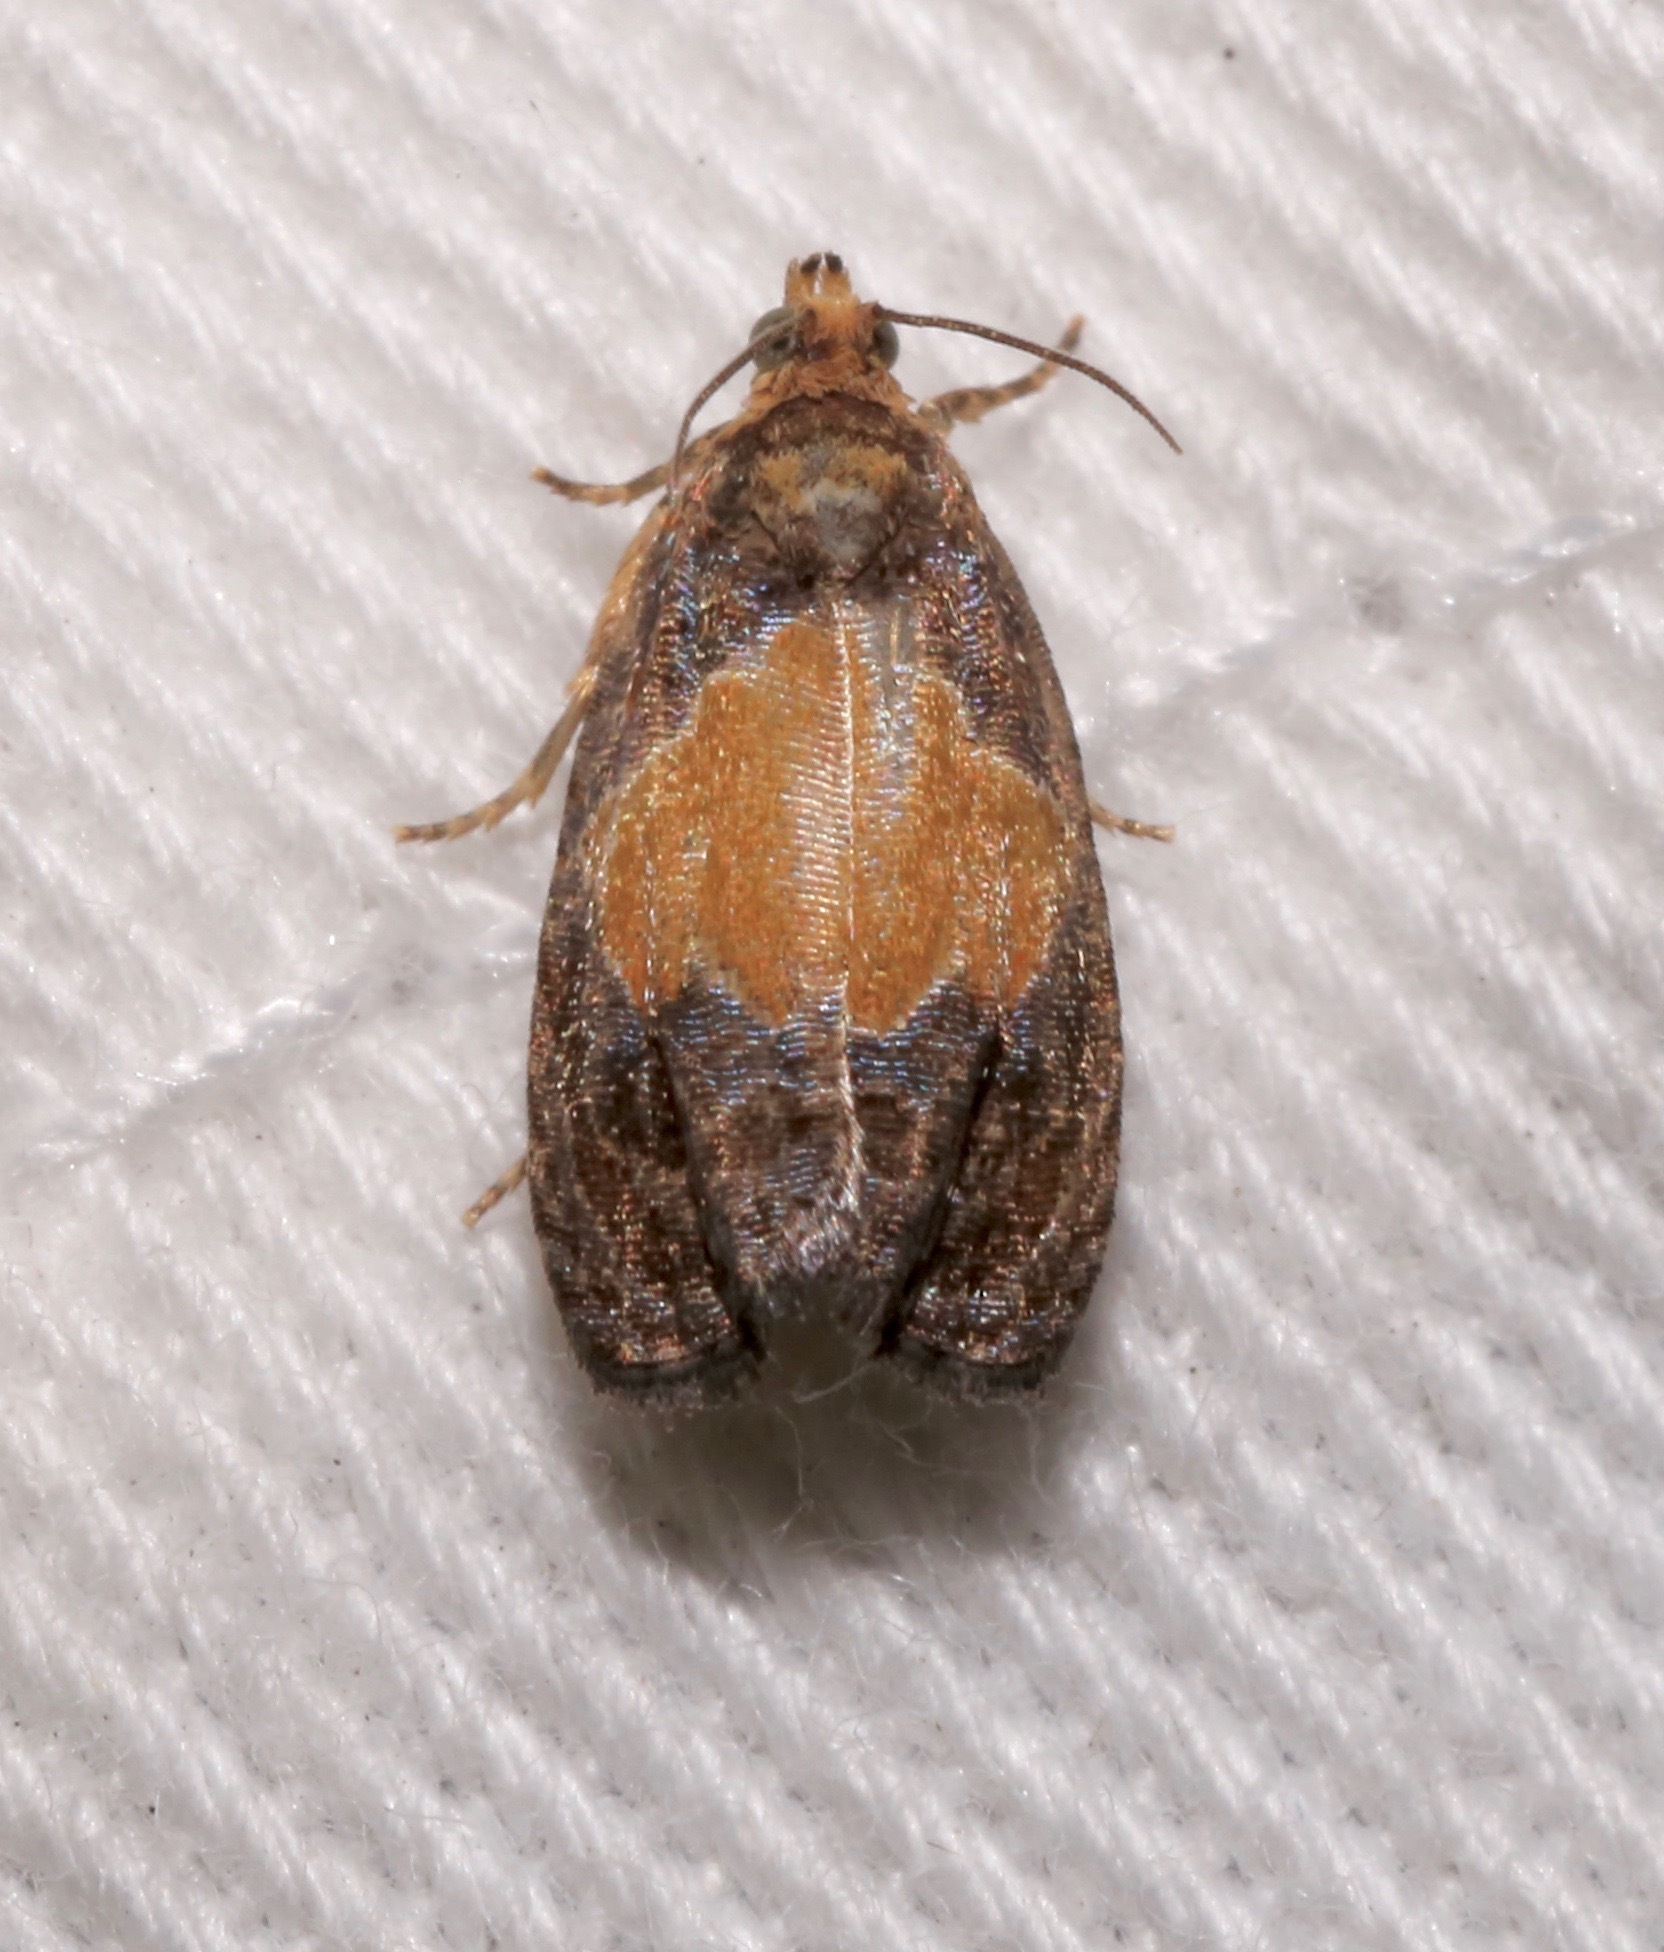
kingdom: Animalia
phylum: Arthropoda
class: Insecta
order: Lepidoptera
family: Tortricidae
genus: Olethreutes
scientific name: Olethreutes osmundana
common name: Fern olethreutes moth
